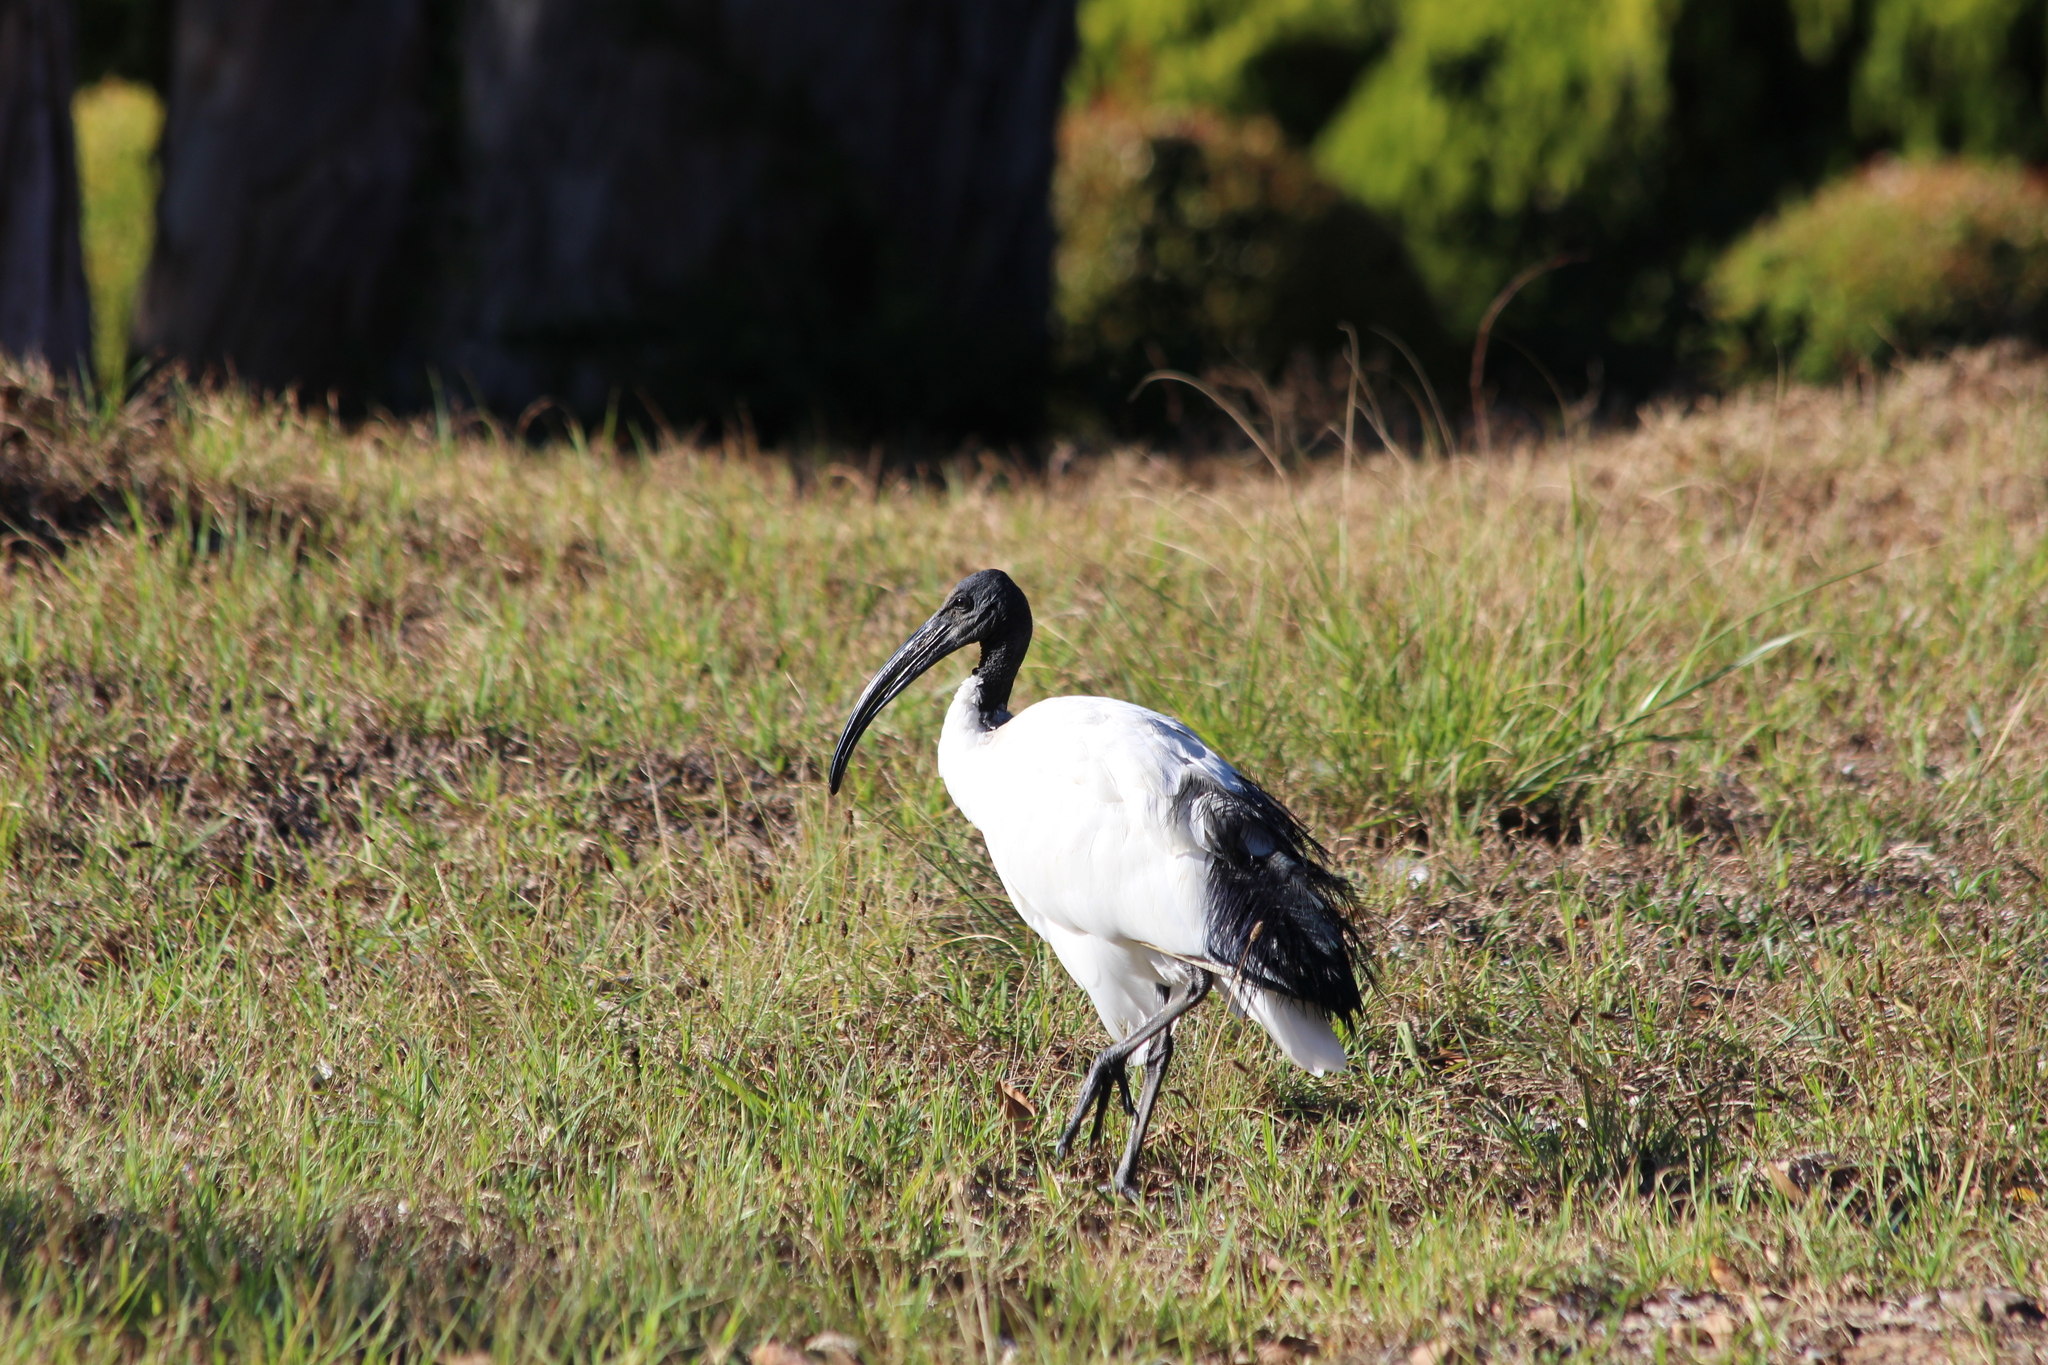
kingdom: Animalia
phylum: Chordata
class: Aves
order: Pelecaniformes
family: Threskiornithidae
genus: Threskiornis
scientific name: Threskiornis aethiopicus
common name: Sacred ibis
